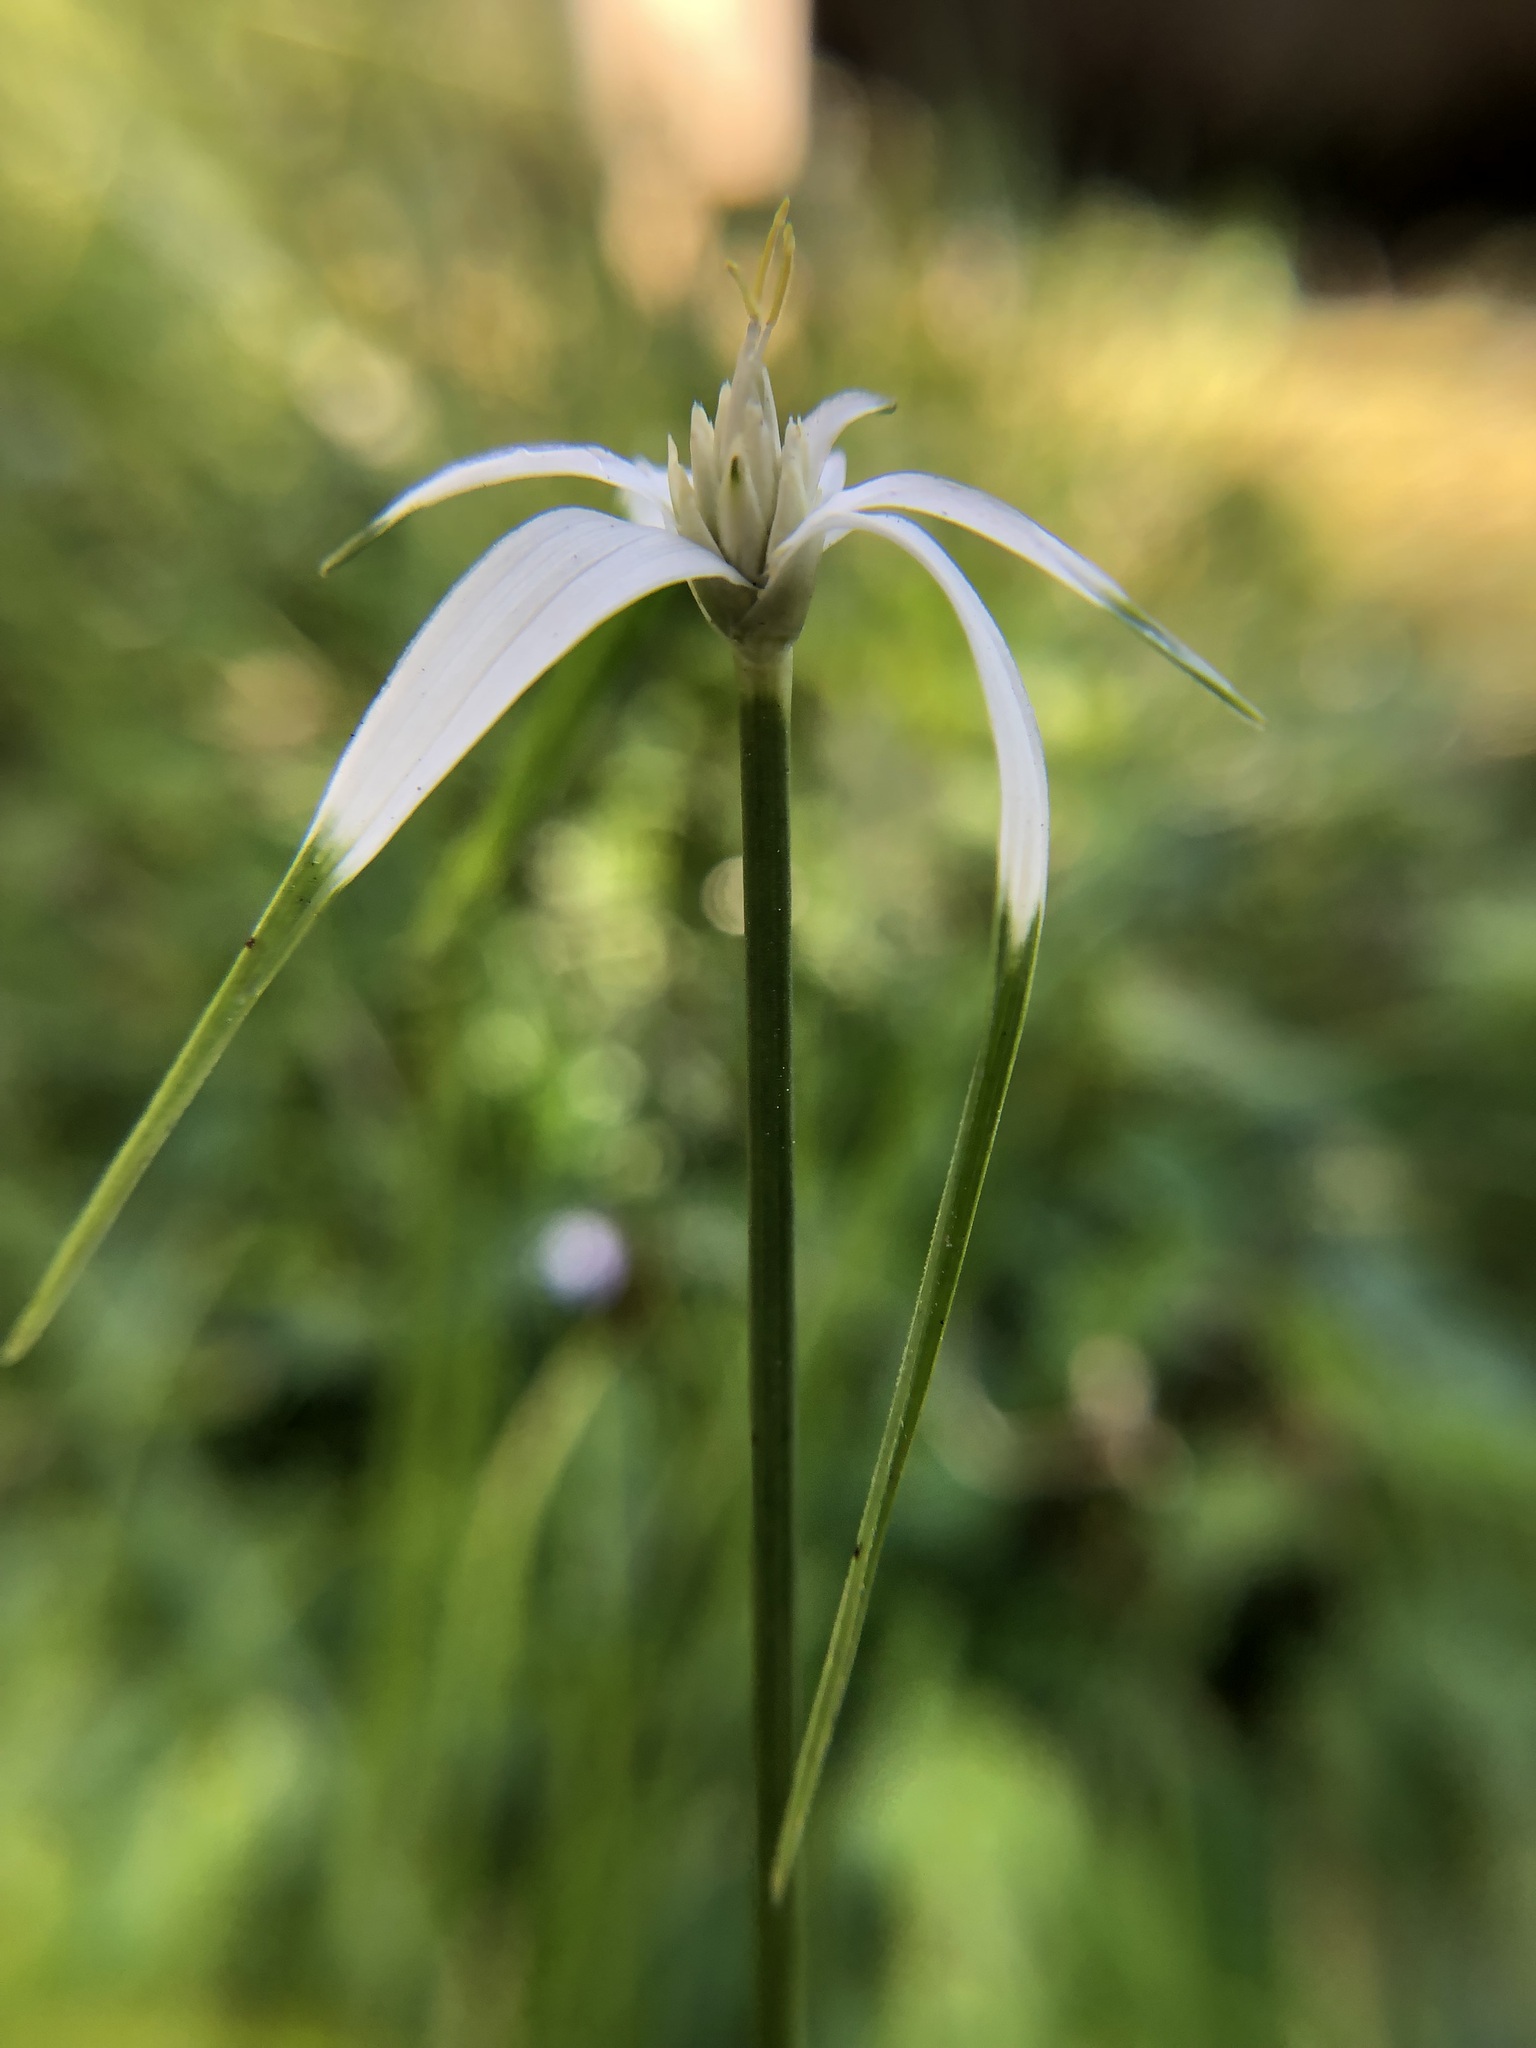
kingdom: Plantae
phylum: Tracheophyta
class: Liliopsida
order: Poales
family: Cyperaceae
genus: Rhynchospora
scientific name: Rhynchospora colorata
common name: Star sedge
